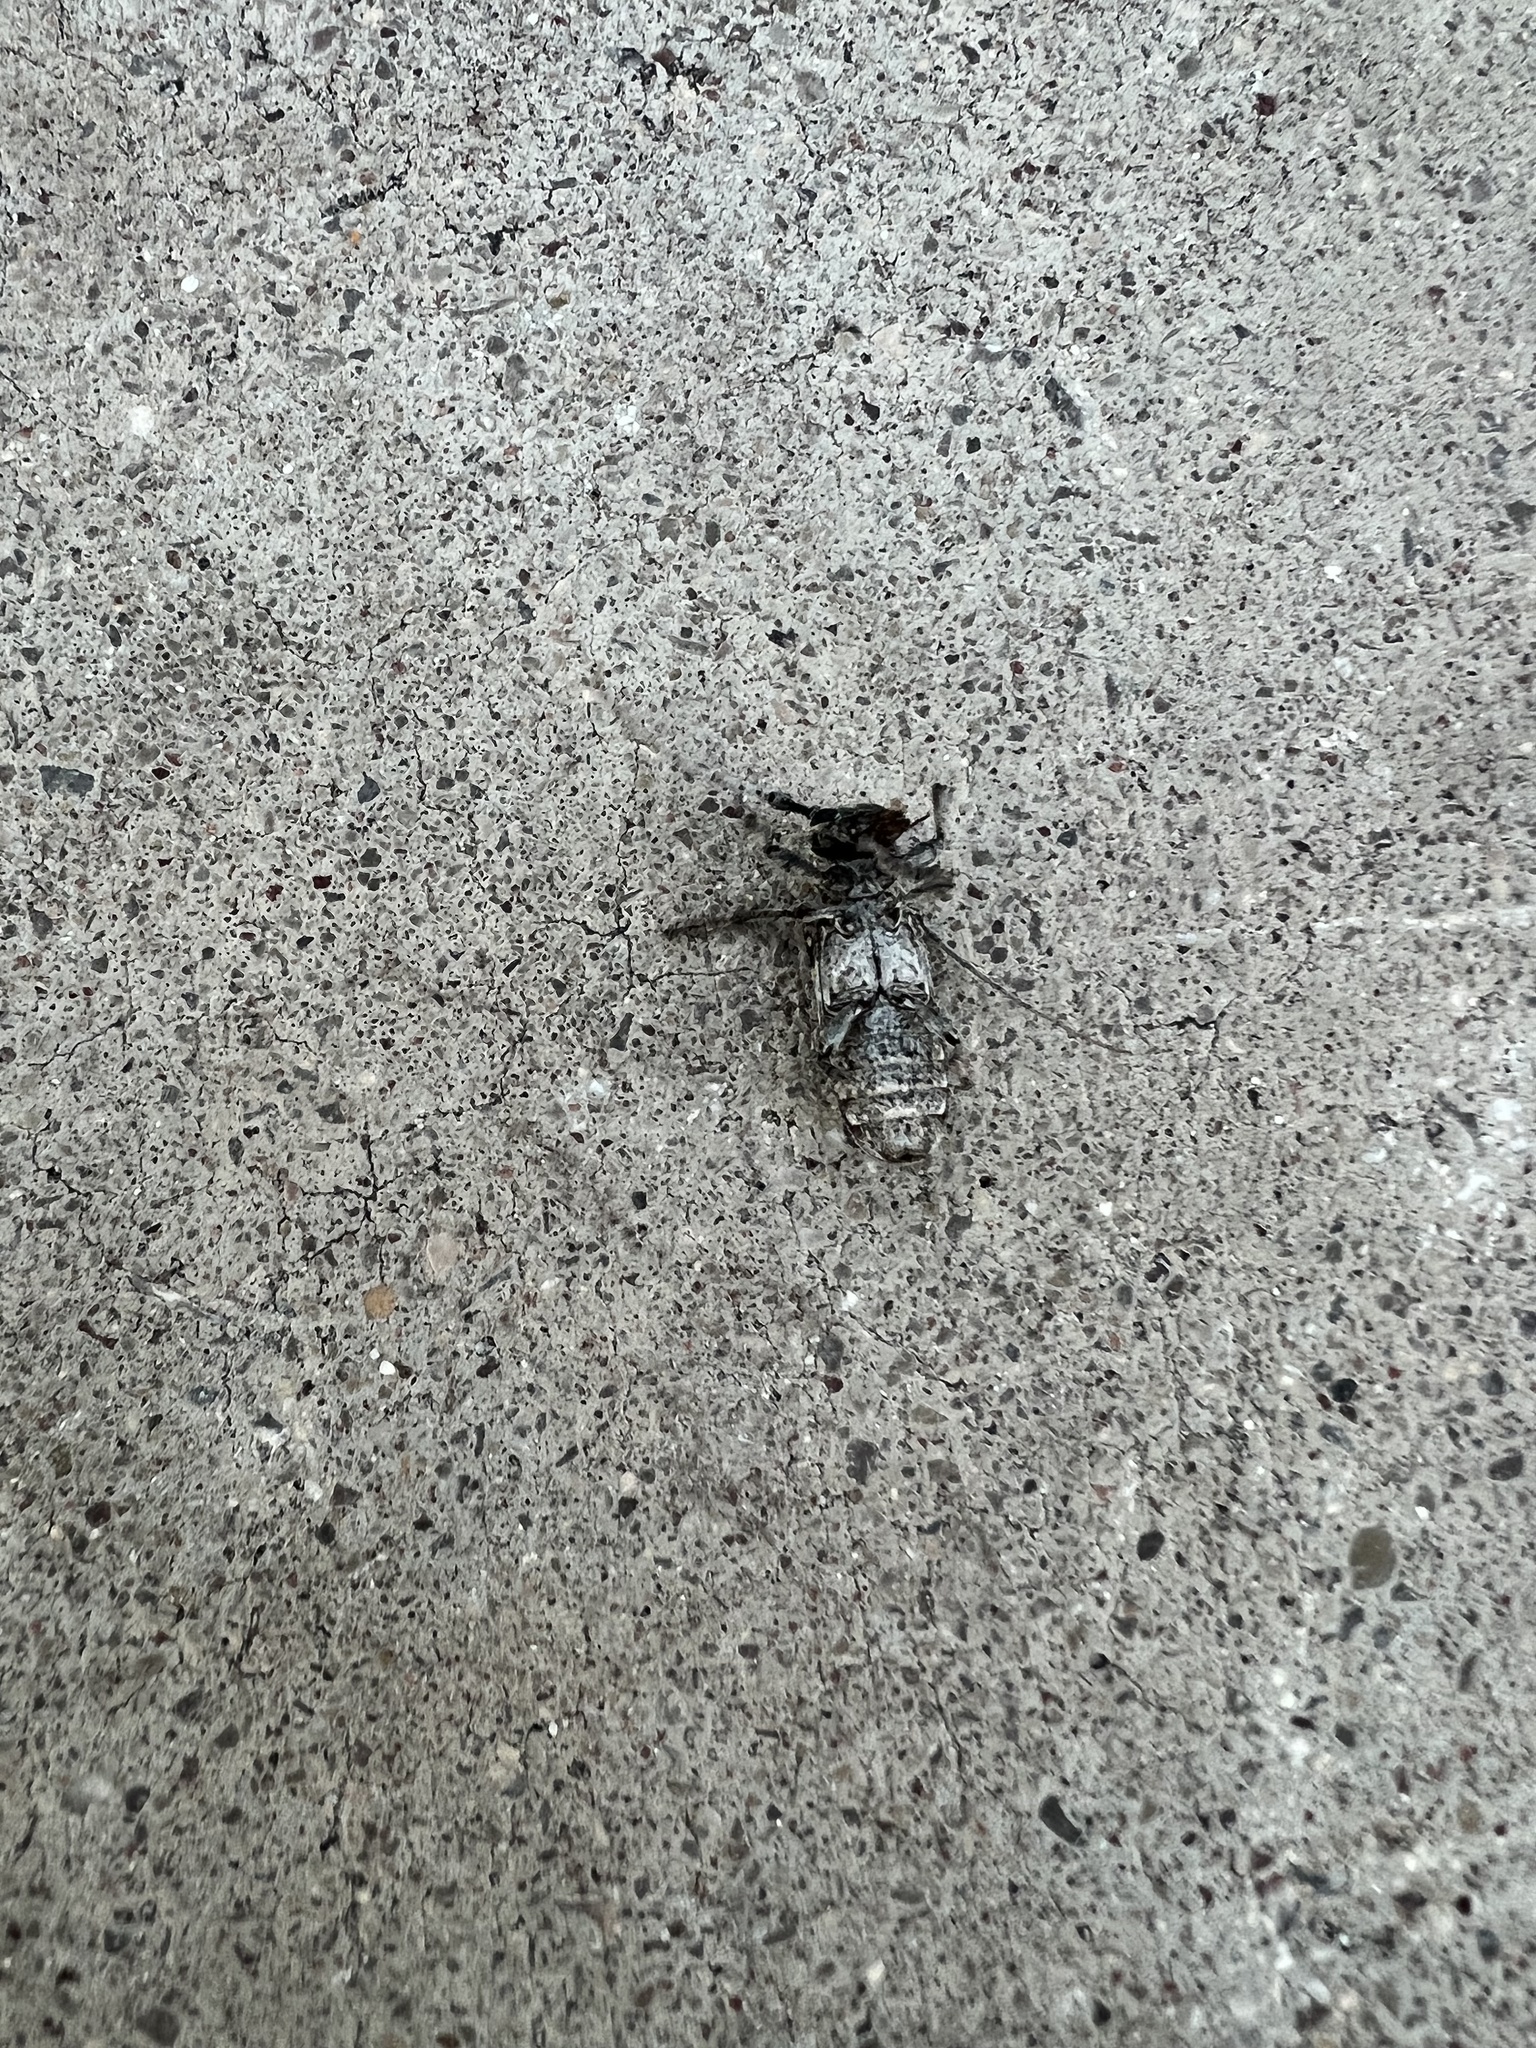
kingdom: Animalia
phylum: Arthropoda
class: Insecta
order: Coleoptera
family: Cerambycidae
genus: Oncideres
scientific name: Oncideres rhodosticta
